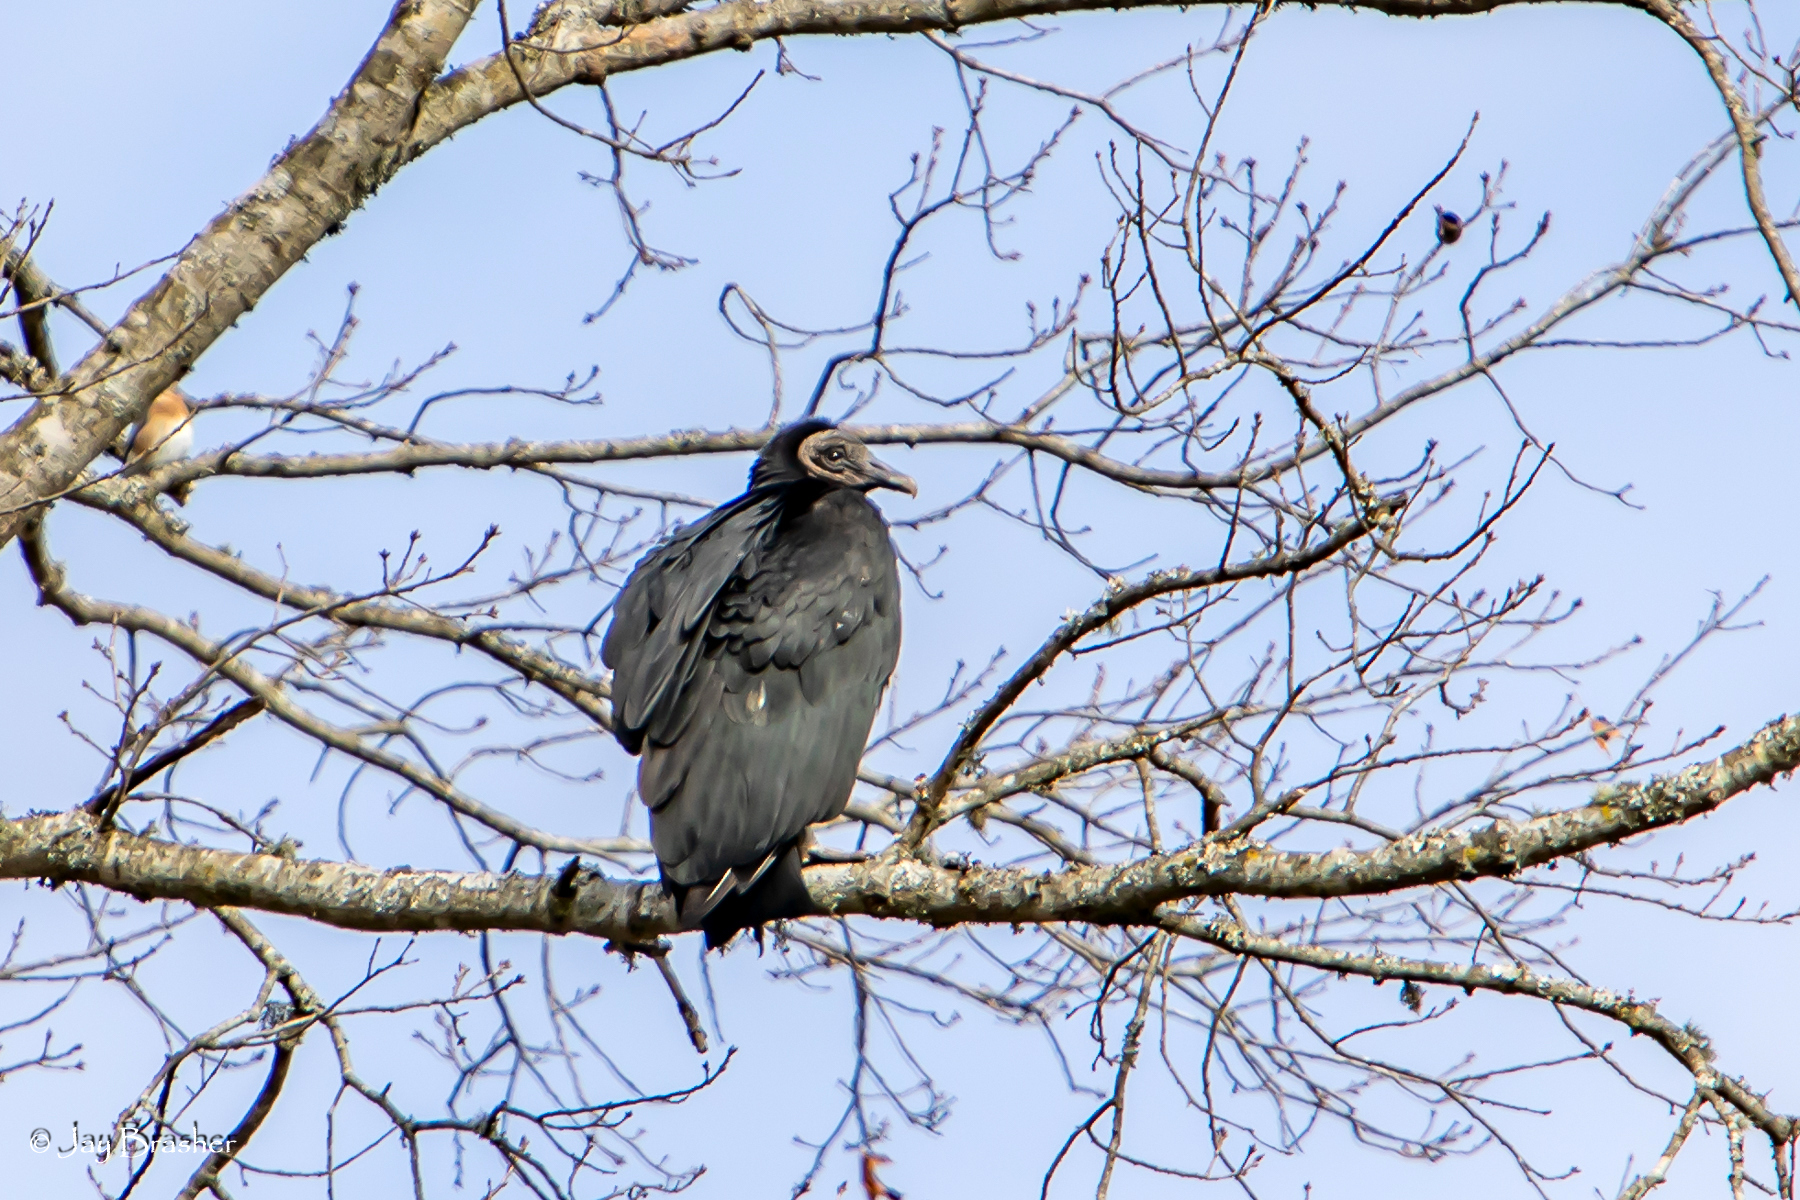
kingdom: Animalia
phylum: Chordata
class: Aves
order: Accipitriformes
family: Cathartidae
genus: Coragyps
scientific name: Coragyps atratus
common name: Black vulture
